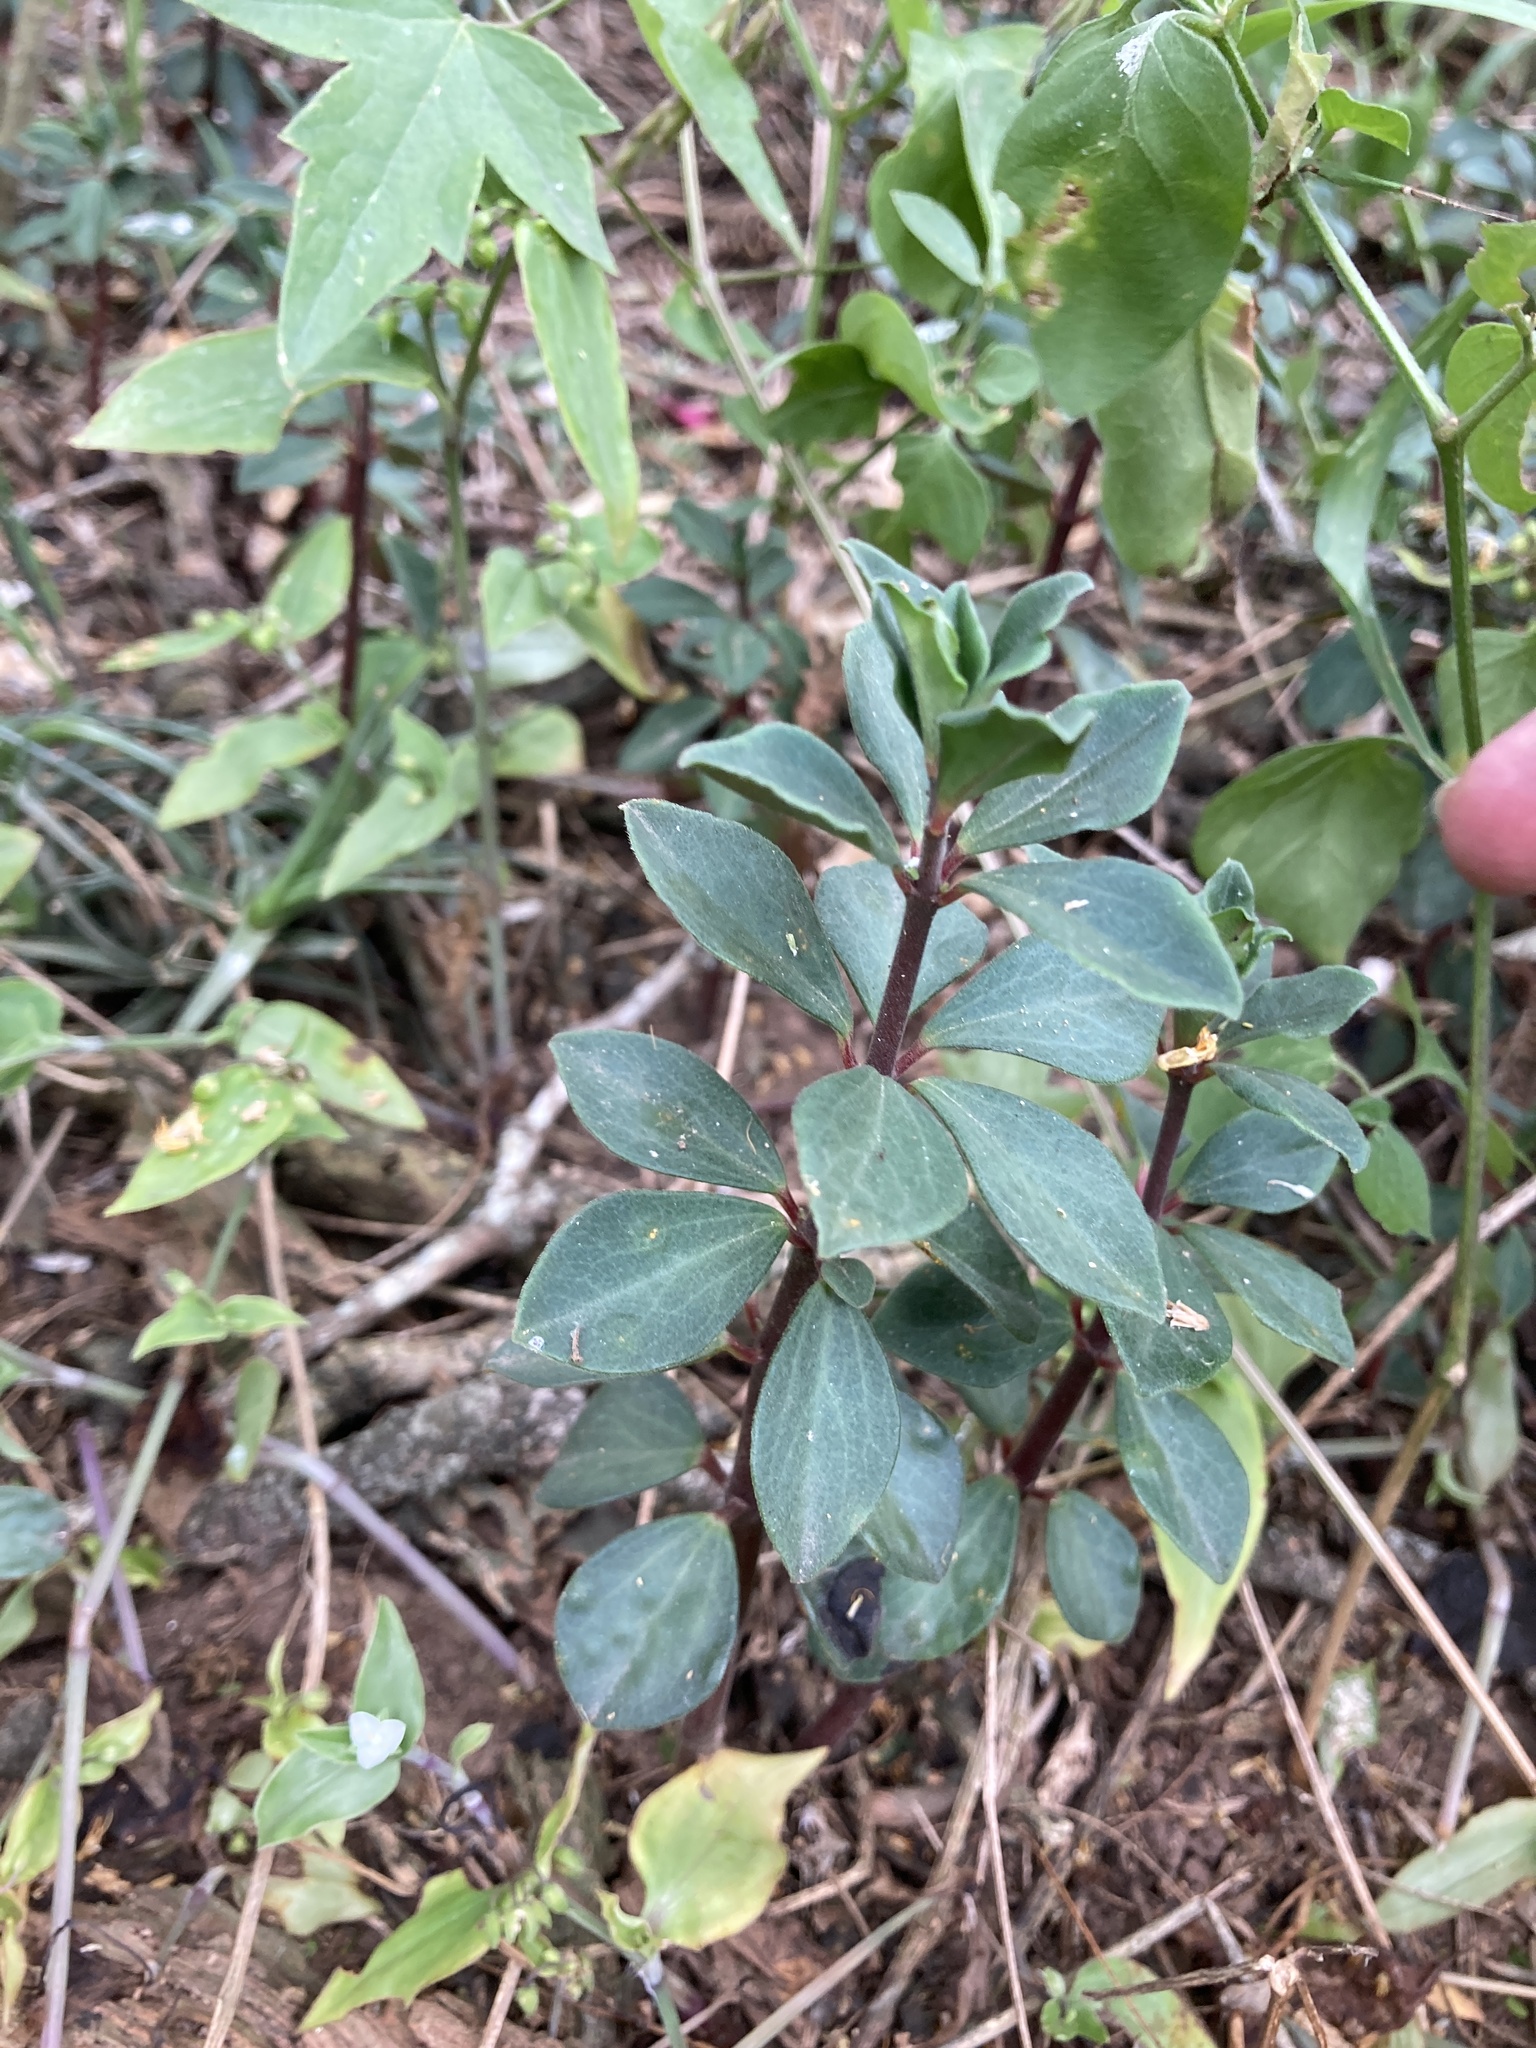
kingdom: Plantae
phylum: Tracheophyta
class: Magnoliopsida
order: Piperales
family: Piperaceae
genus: Peperomia
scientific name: Peperomia comarapana
